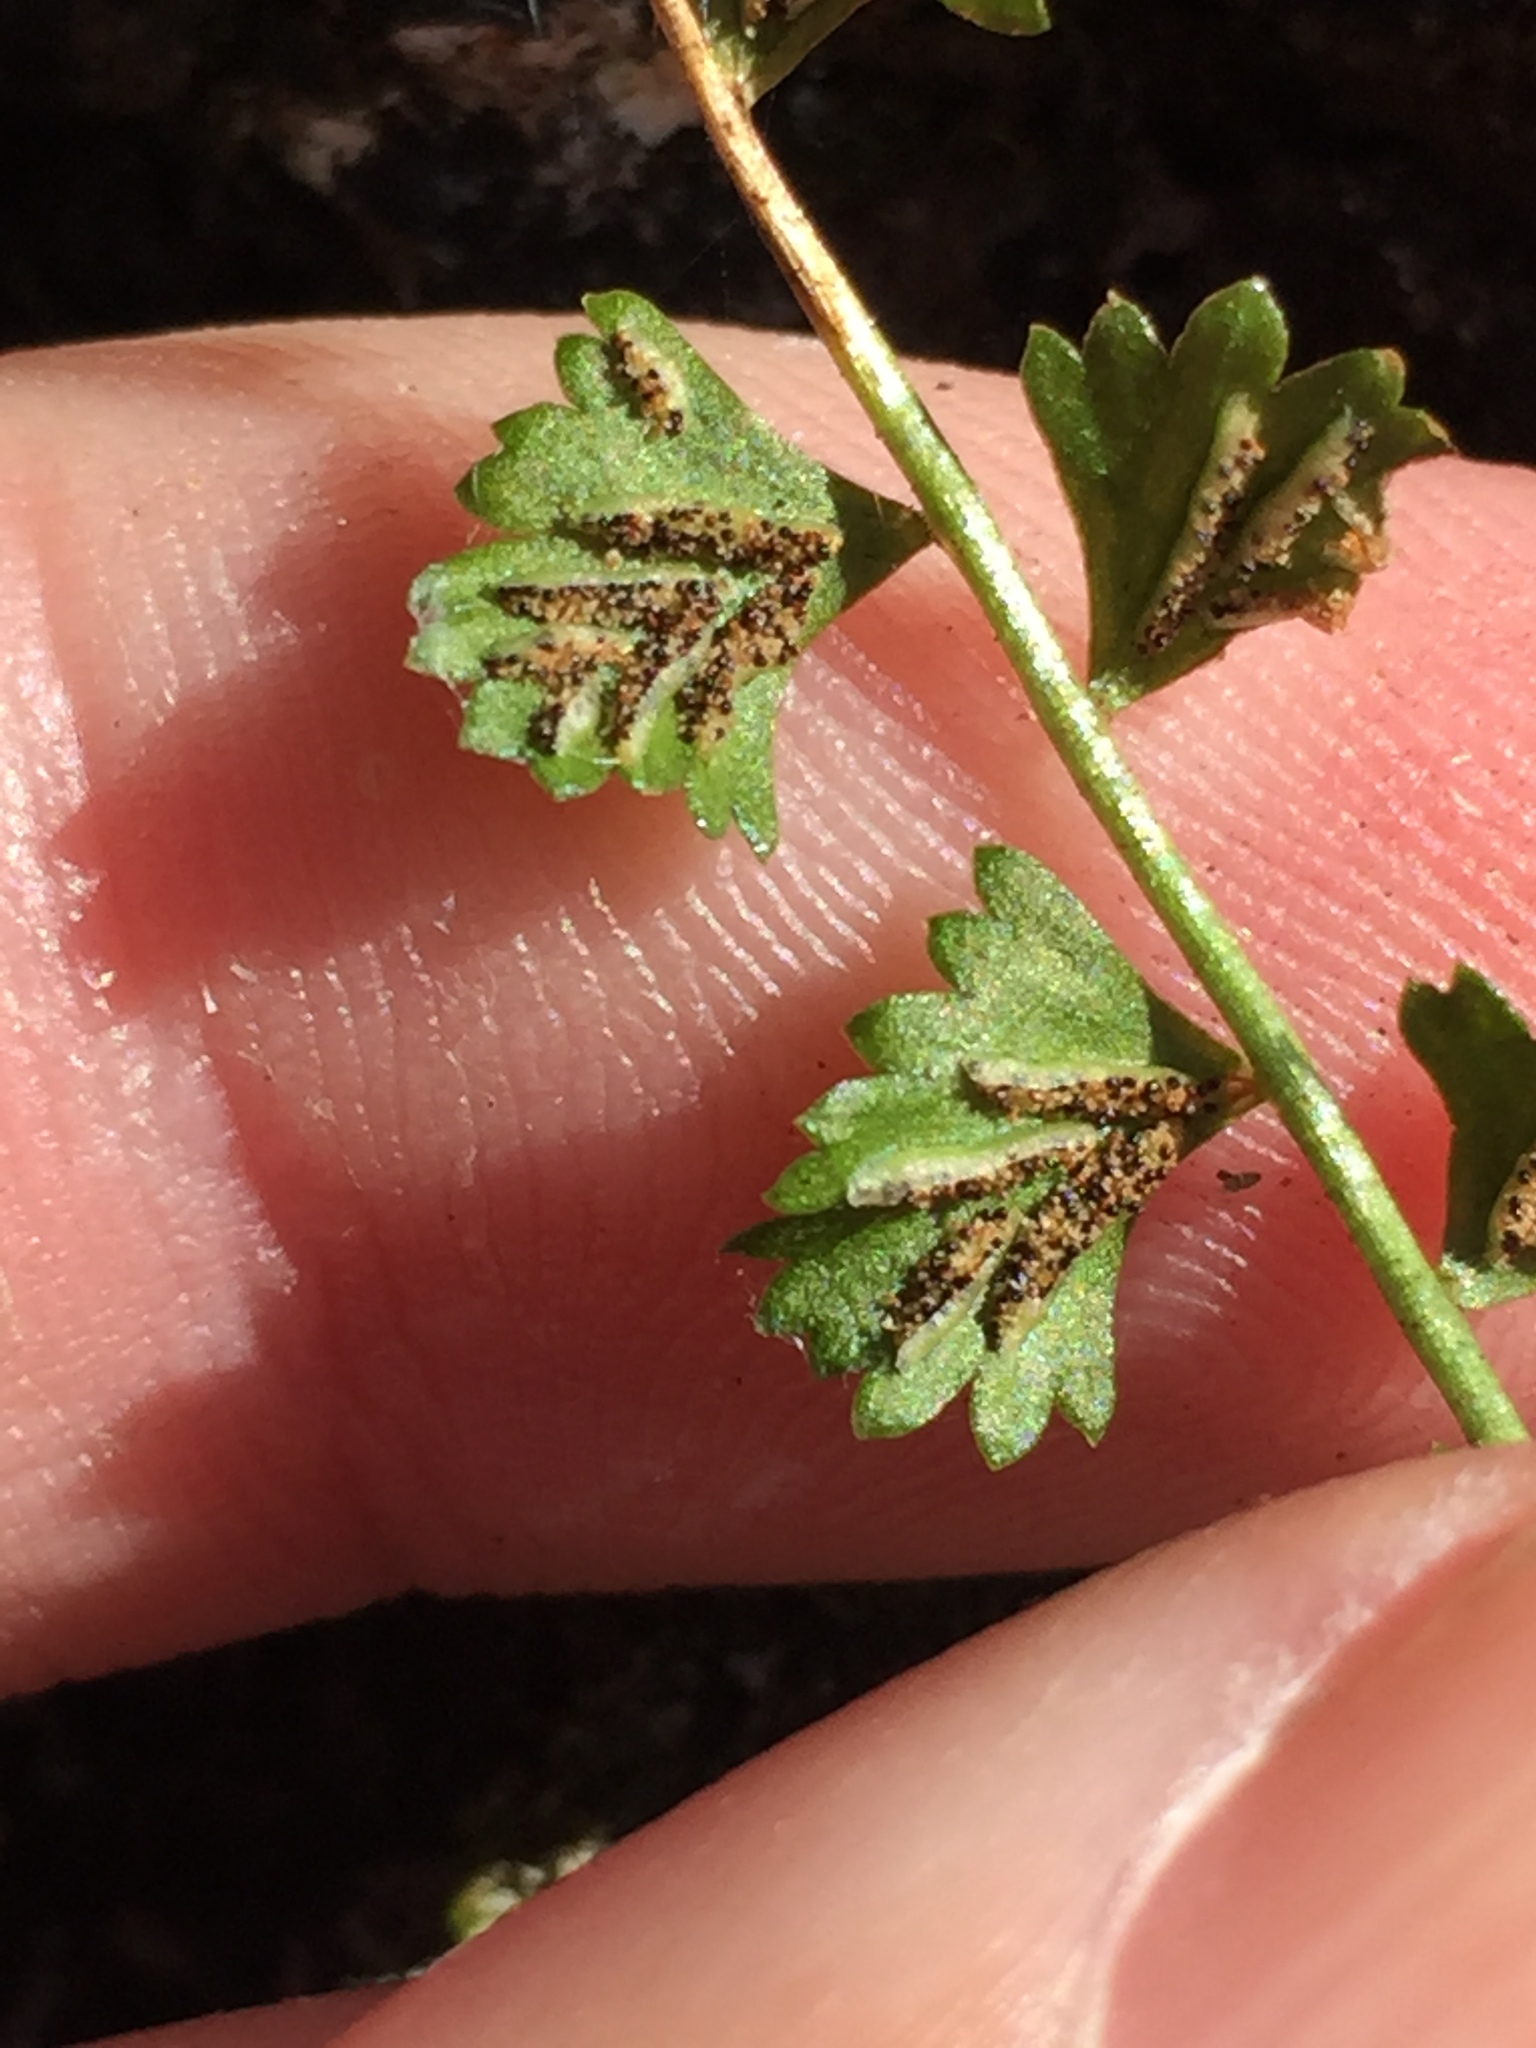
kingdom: Plantae
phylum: Tracheophyta
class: Polypodiopsida
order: Polypodiales
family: Aspleniaceae
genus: Asplenium
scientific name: Asplenium flabellifolium
